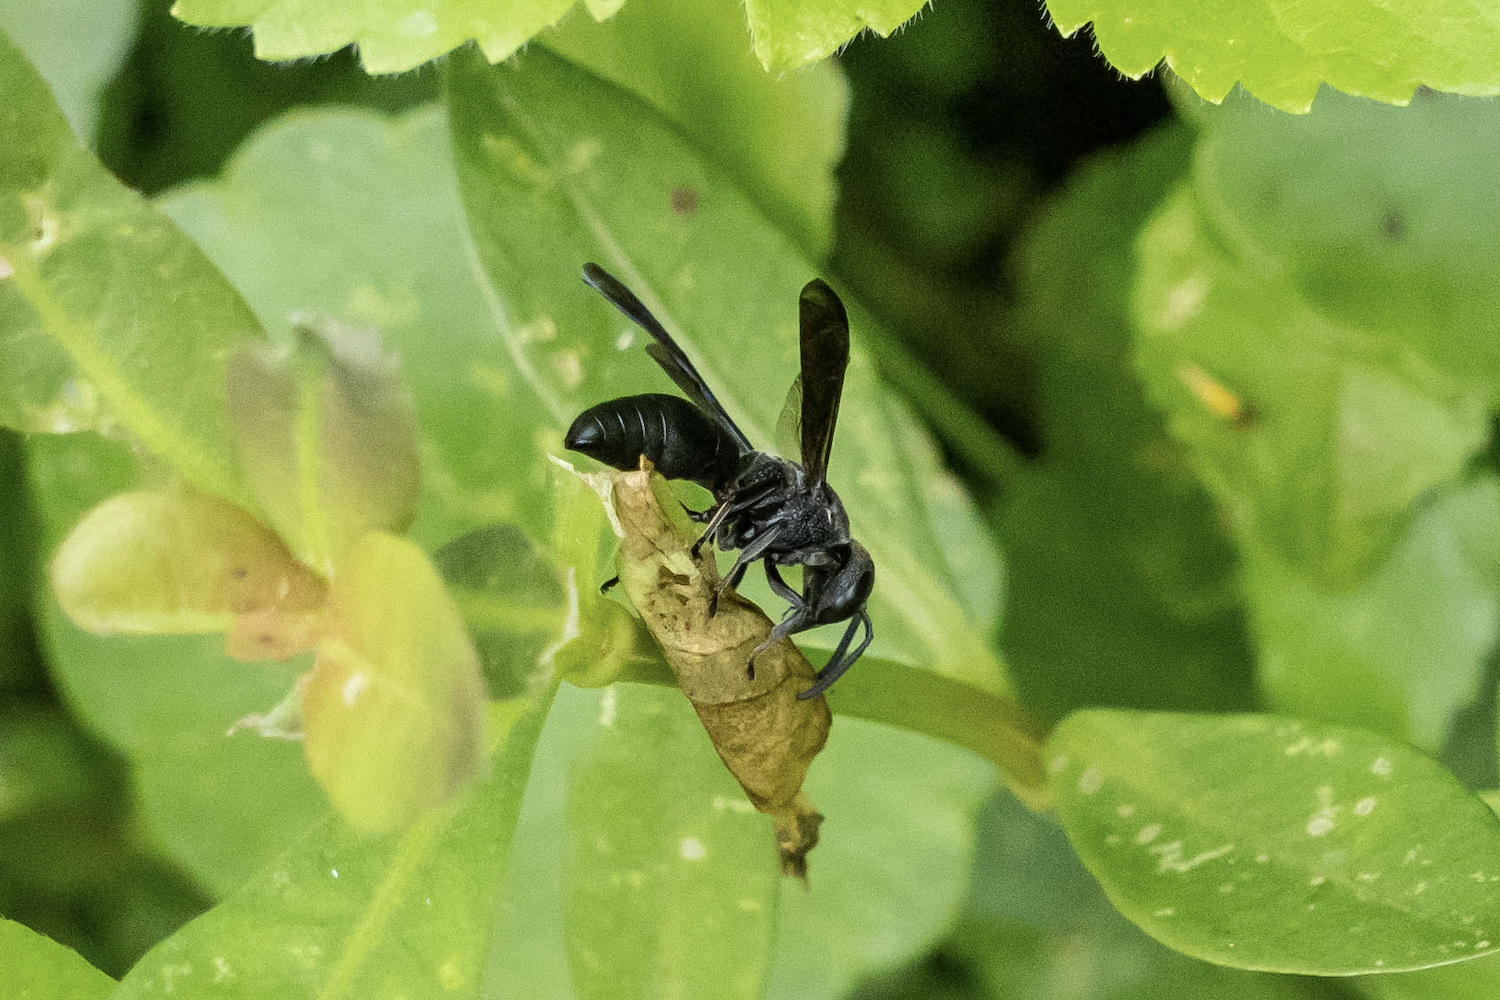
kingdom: Animalia
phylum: Arthropoda
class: Insecta
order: Hymenoptera
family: Eumenidae
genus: Allorhynchium
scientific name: Allorhynchium chinense
